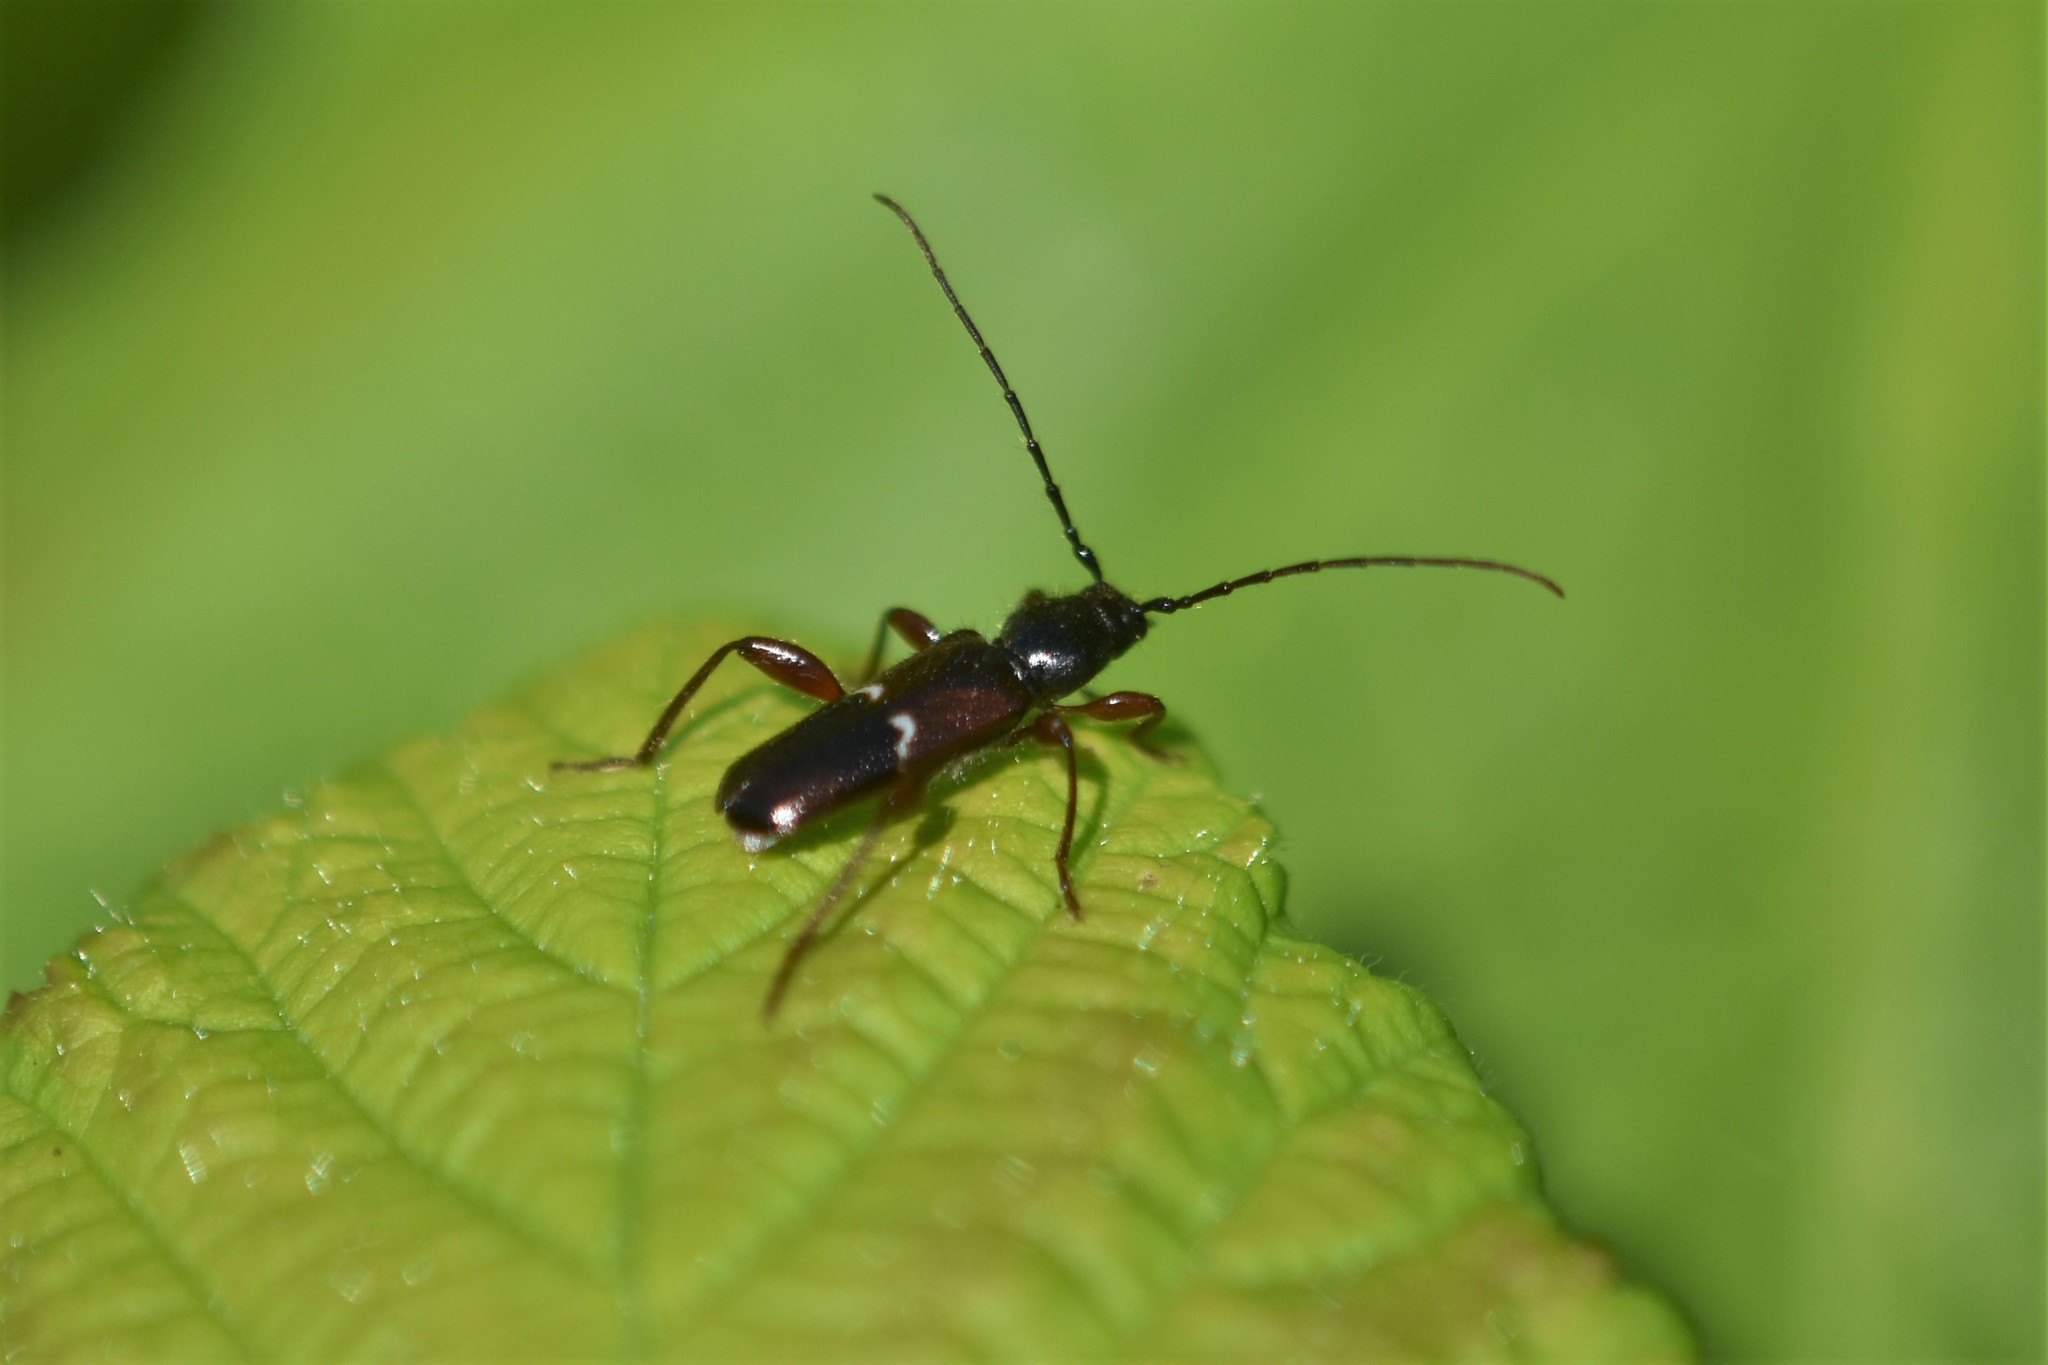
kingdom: Animalia
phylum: Arthropoda
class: Insecta
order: Coleoptera
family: Cerambycidae
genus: Phymatodes
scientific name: Phymatodes vulneratus
